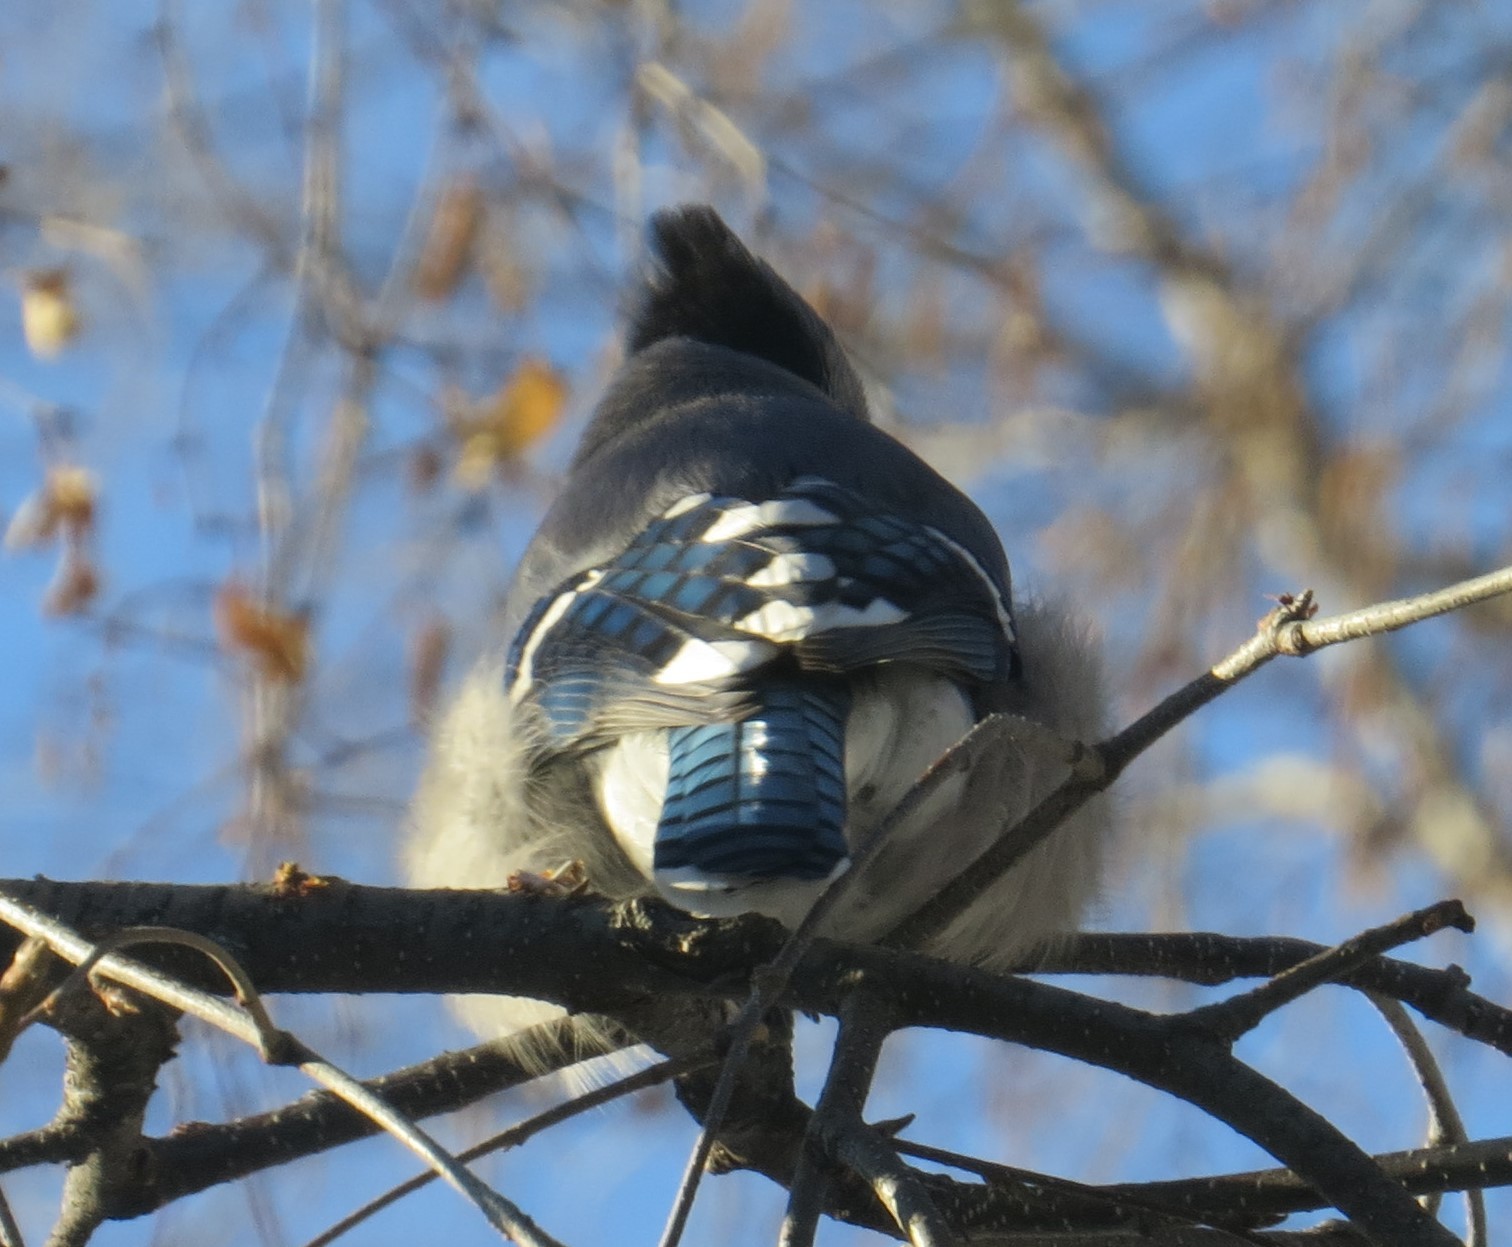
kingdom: Animalia
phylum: Chordata
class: Aves
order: Passeriformes
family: Corvidae
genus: Cyanocitta
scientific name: Cyanocitta cristata
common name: Blue jay
